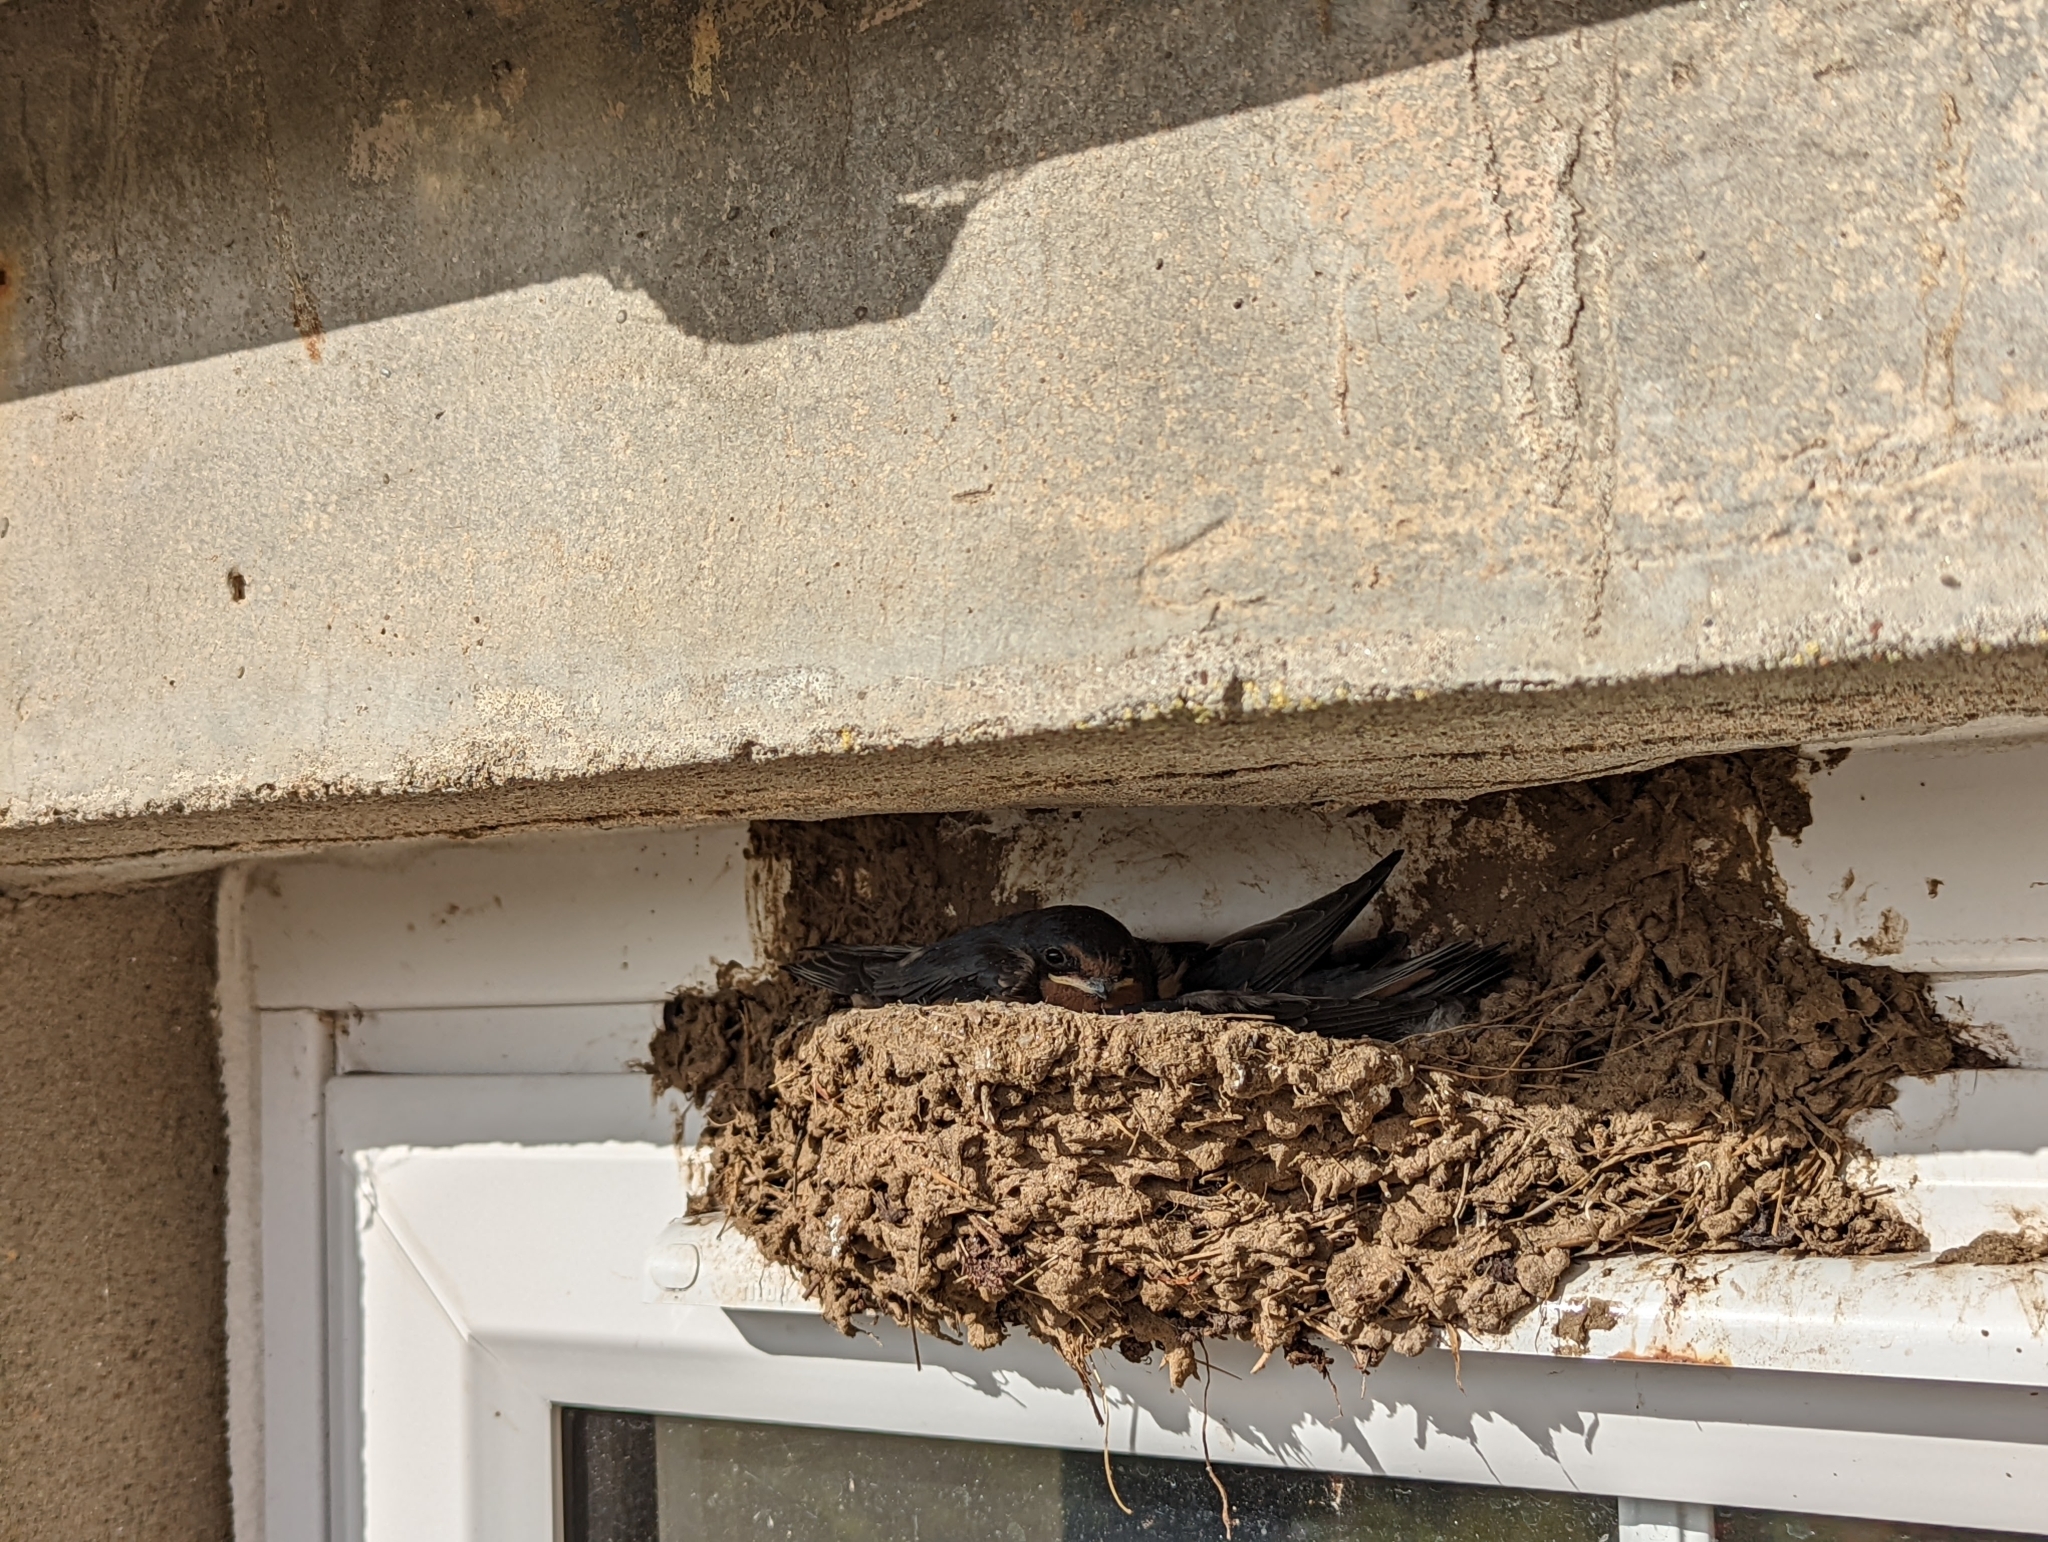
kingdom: Animalia
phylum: Chordata
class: Aves
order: Passeriformes
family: Hirundinidae
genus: Hirundo
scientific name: Hirundo rustica
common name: Barn swallow
